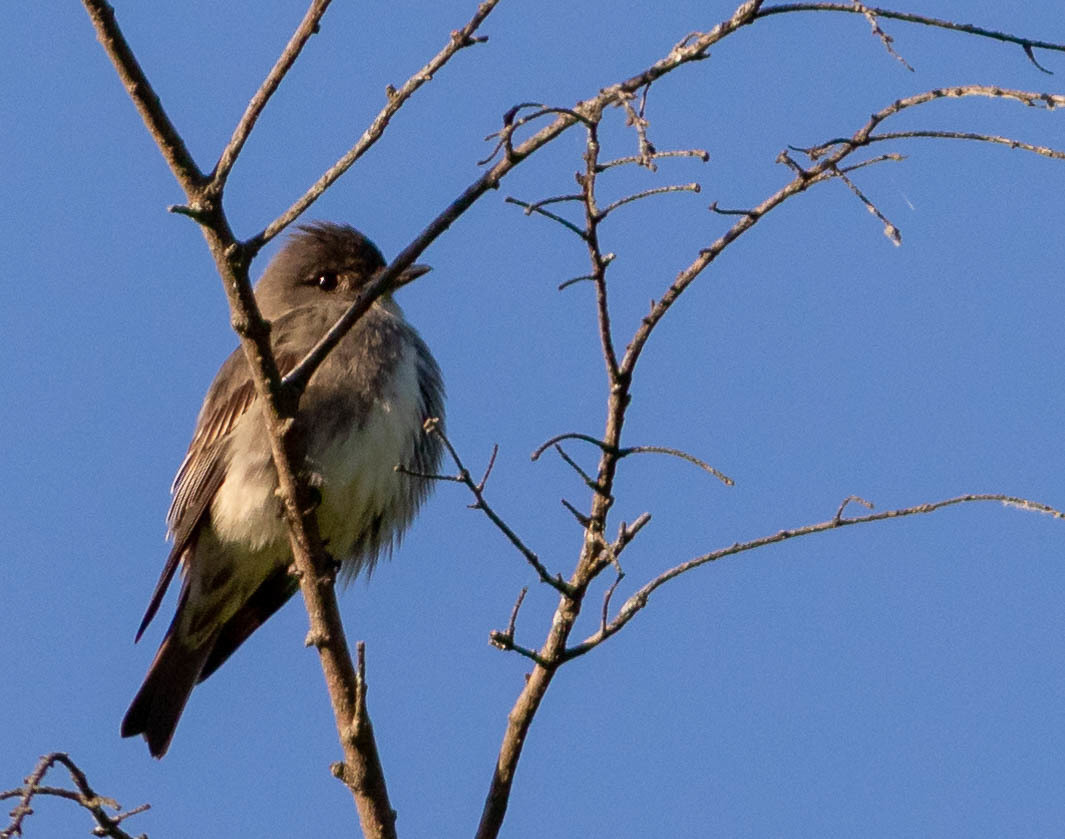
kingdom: Animalia
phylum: Chordata
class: Aves
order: Passeriformes
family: Tyrannidae
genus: Contopus
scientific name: Contopus cooperi
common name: Olive-sided flycatcher
